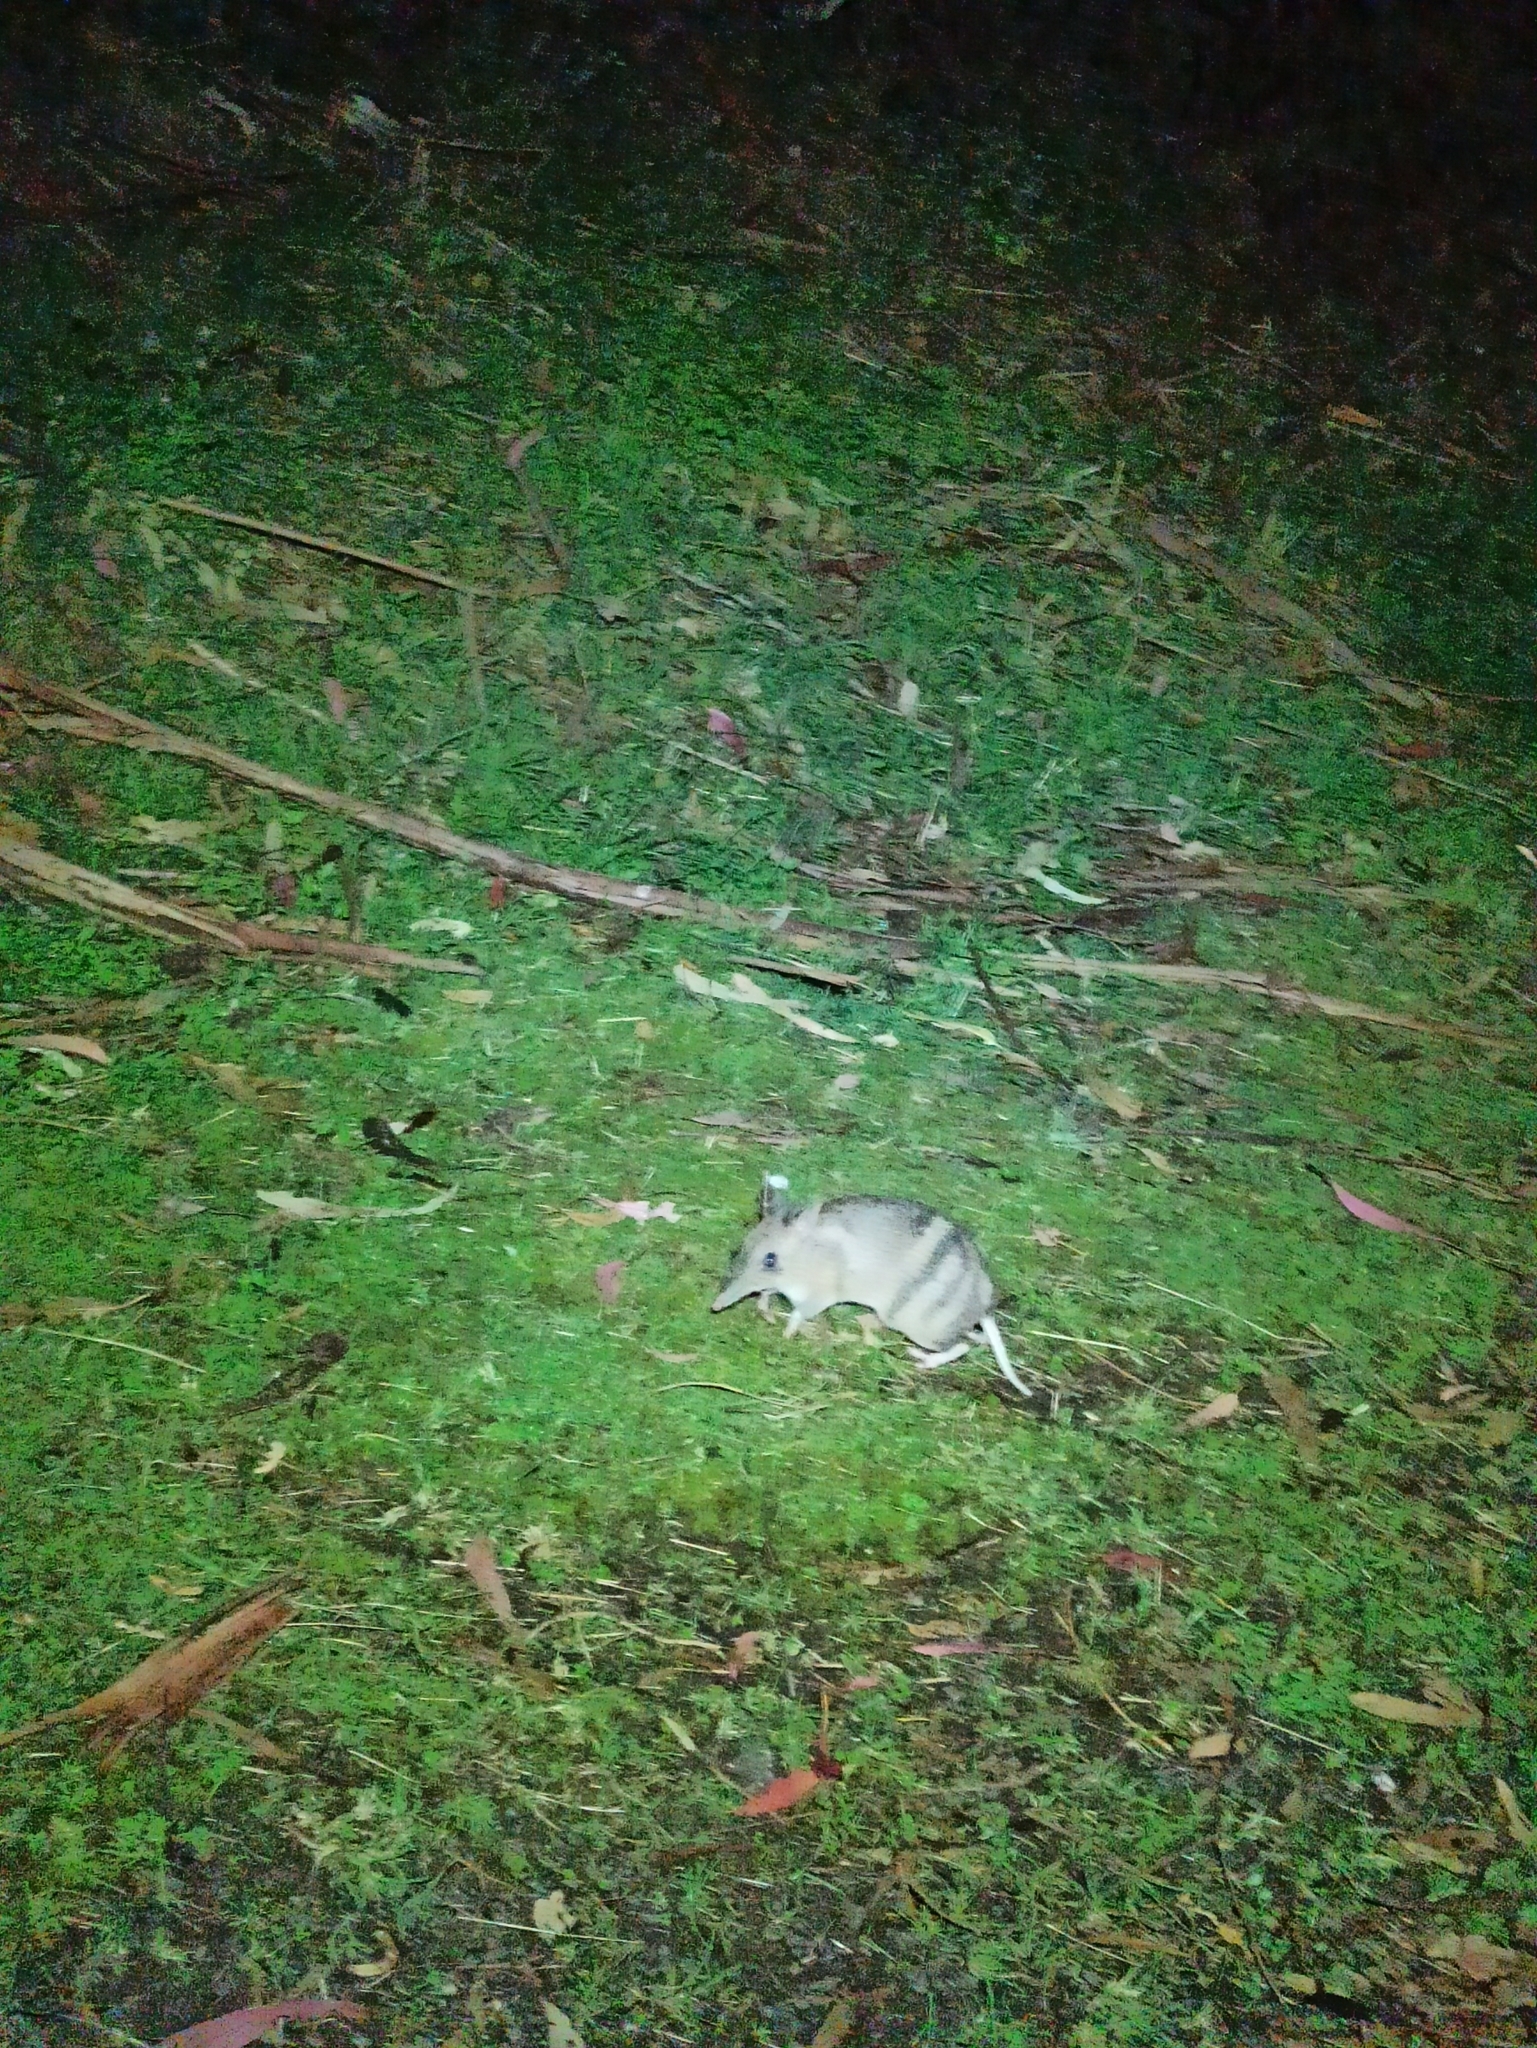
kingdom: Animalia
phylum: Chordata
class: Mammalia
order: Peramelemorphia
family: Peramelidae
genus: Perameles
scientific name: Perameles gunnii
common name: Eastern barred bandicoot
